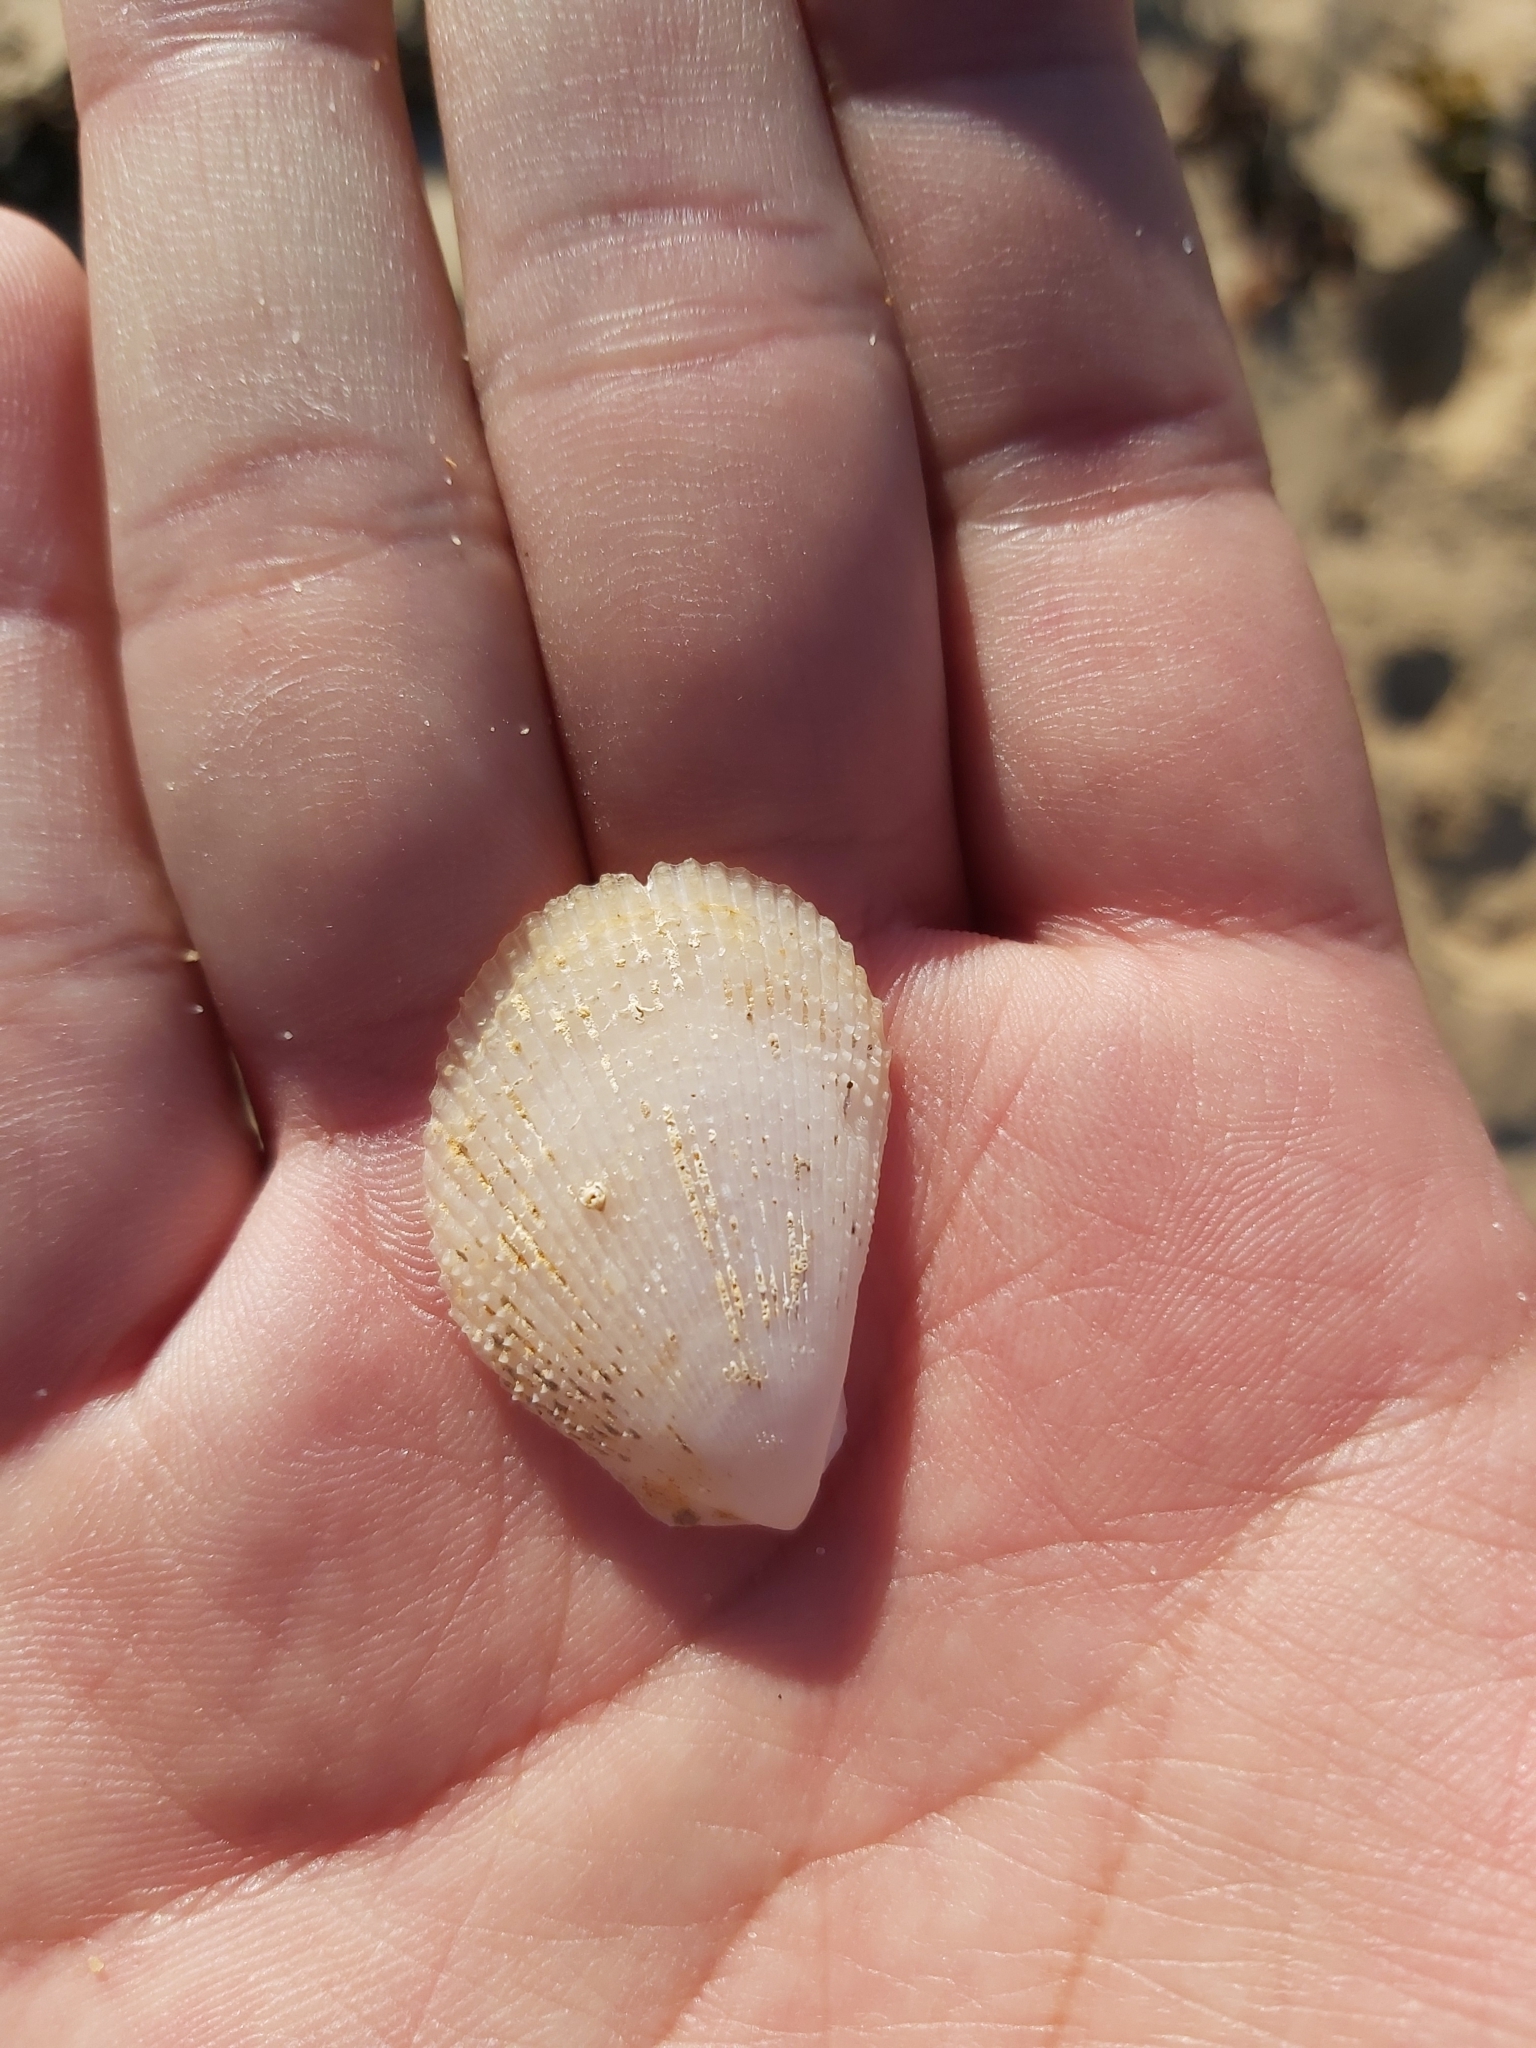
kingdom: Animalia
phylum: Mollusca
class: Bivalvia
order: Limida
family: Limidae
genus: Lima
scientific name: Lima nimbifer
